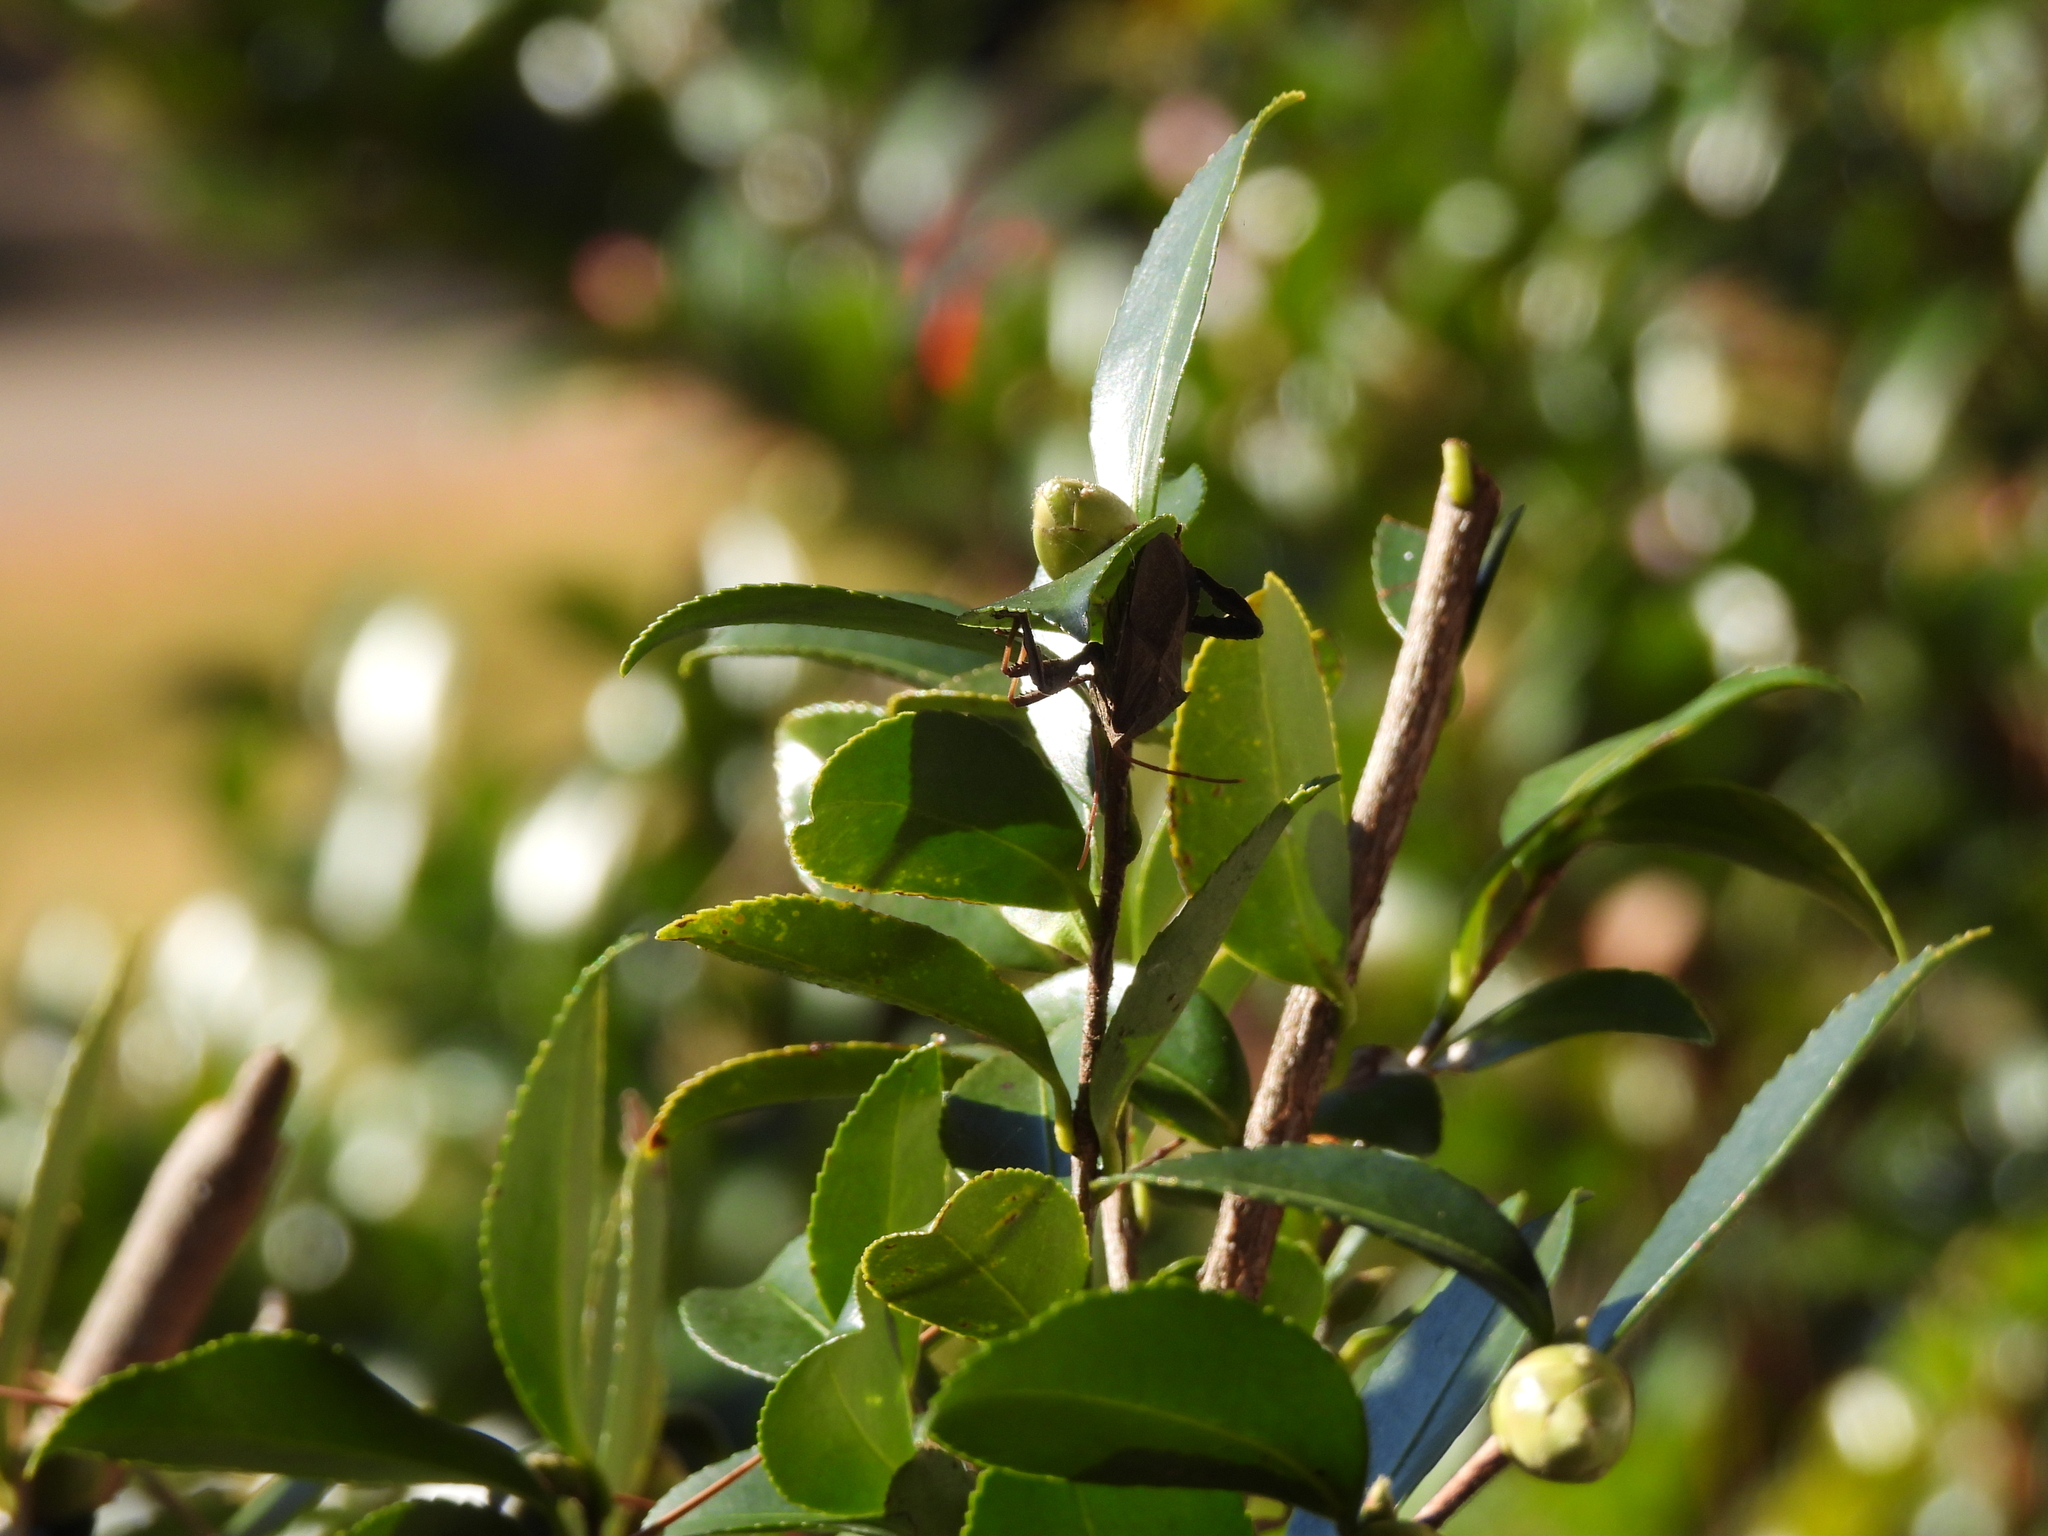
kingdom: Animalia
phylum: Arthropoda
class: Insecta
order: Hemiptera
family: Coreidae
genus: Acanthocephala
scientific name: Acanthocephala femorata
